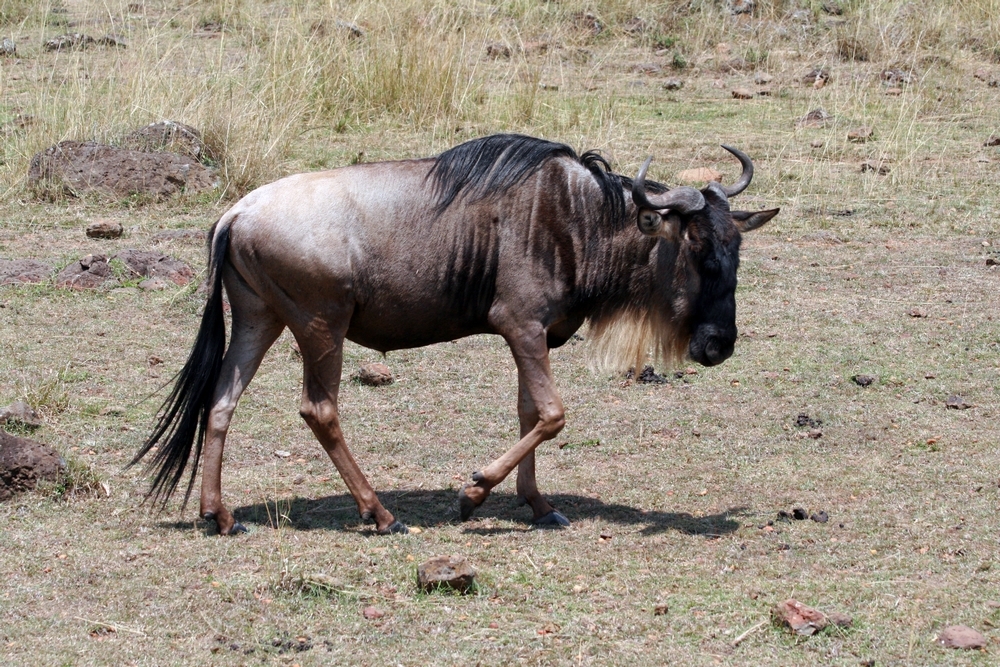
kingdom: Animalia
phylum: Chordata
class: Mammalia
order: Artiodactyla
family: Bovidae
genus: Connochaetes
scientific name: Connochaetes taurinus
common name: Blue wildebeest
